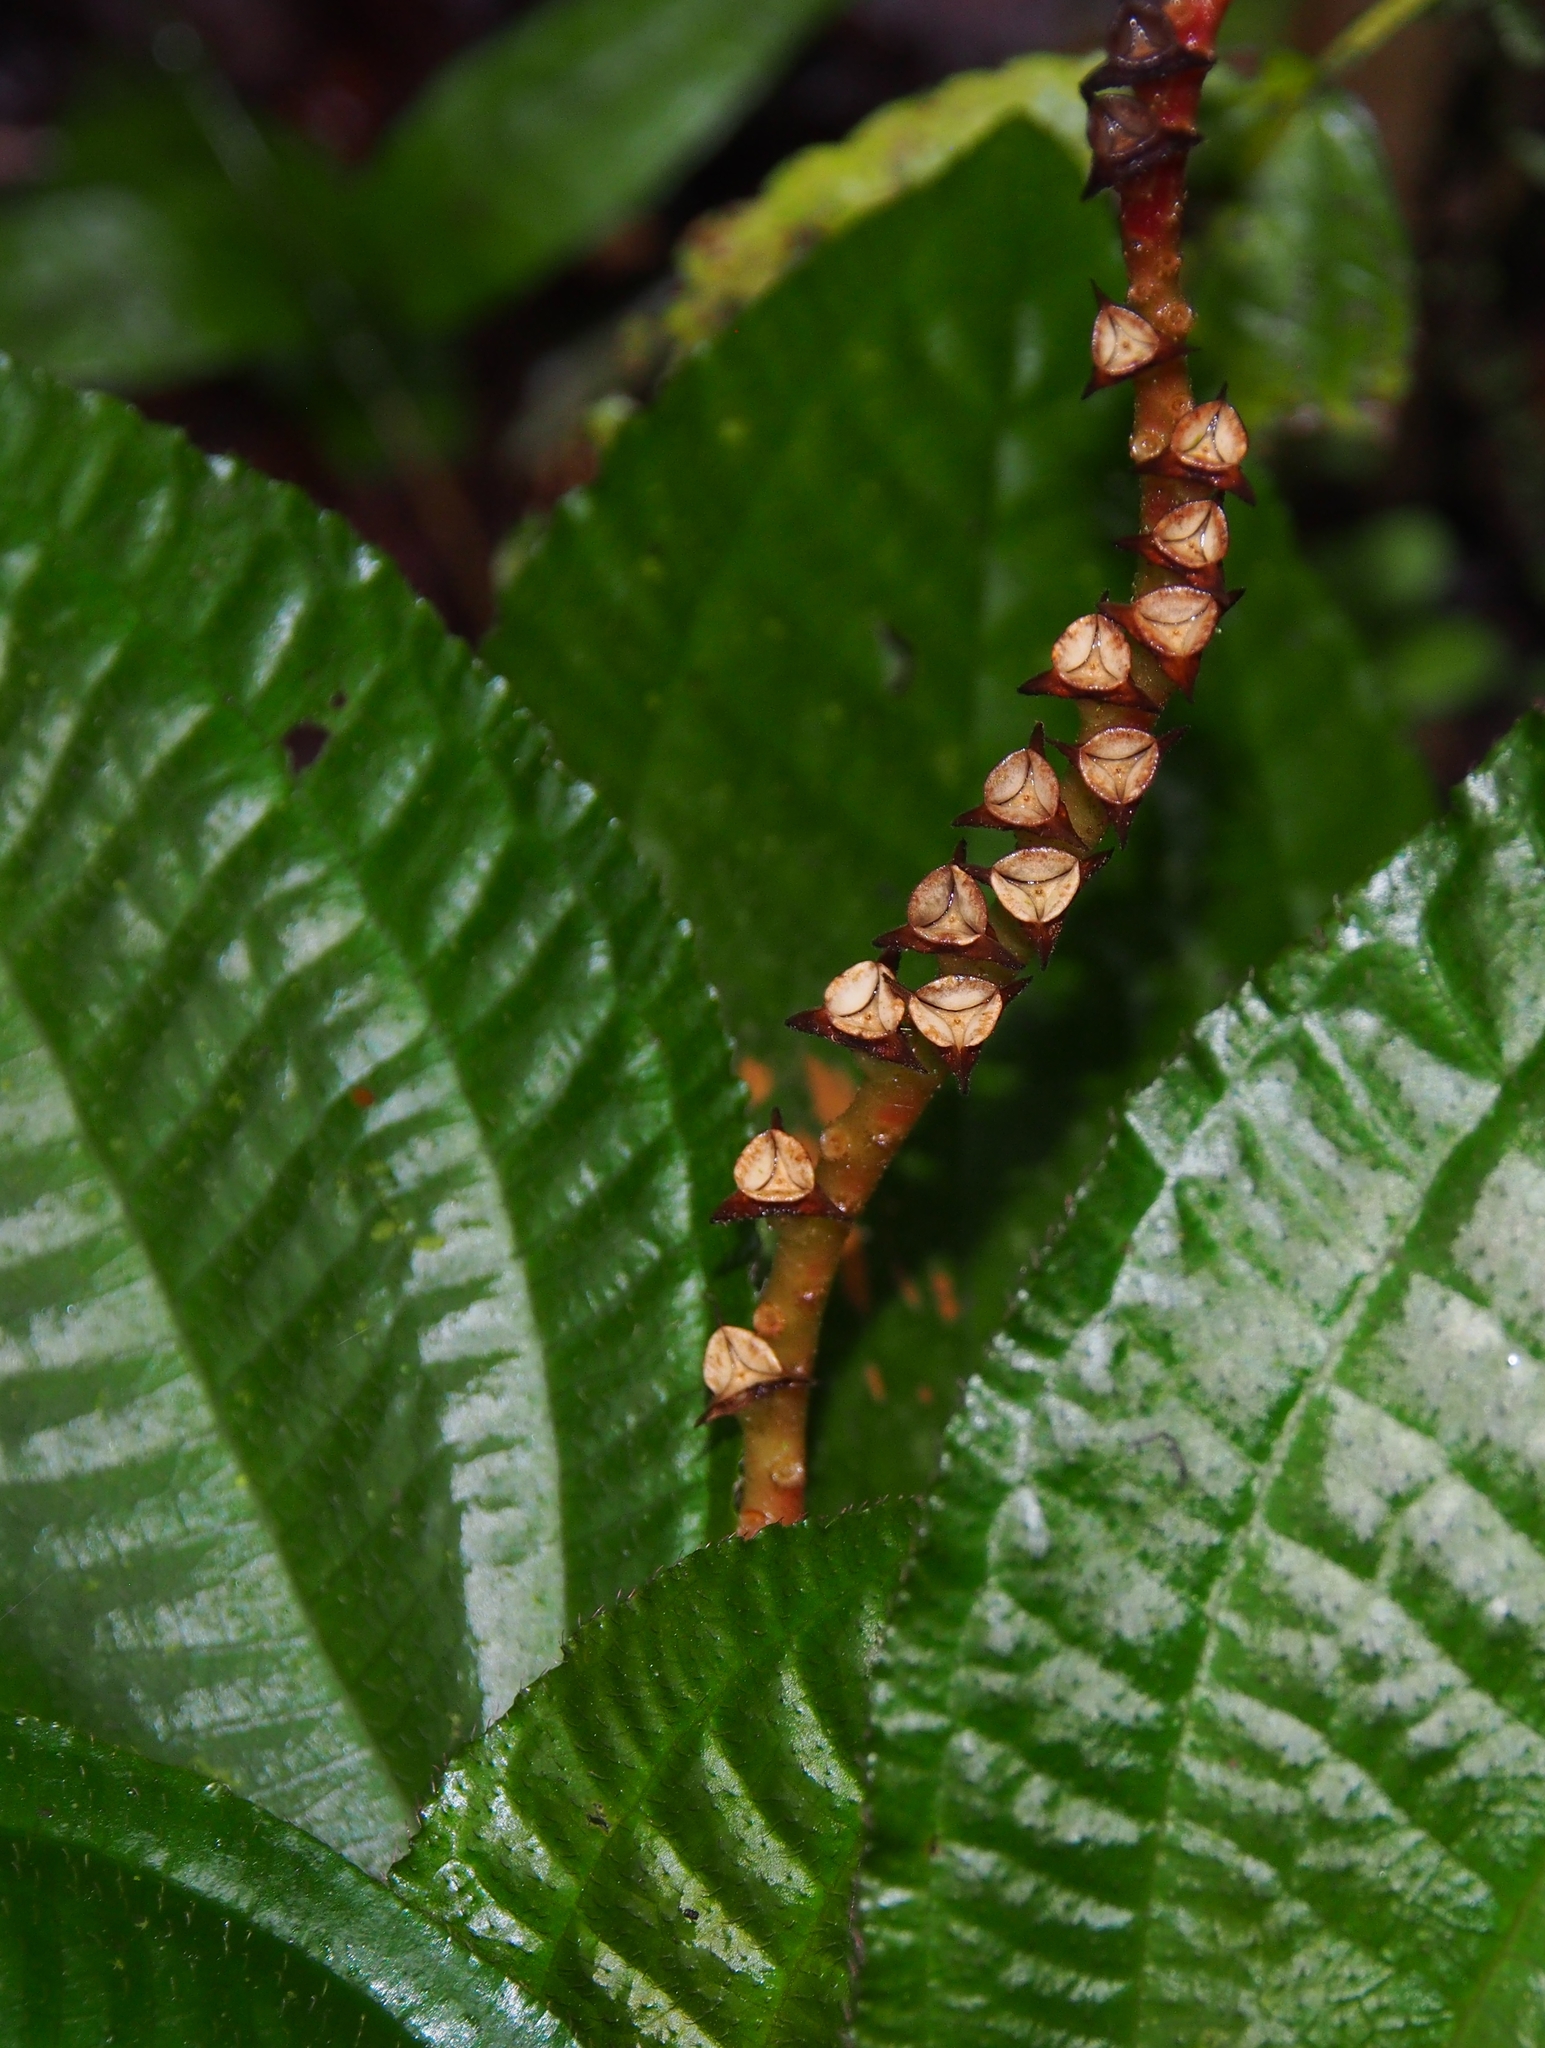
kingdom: Plantae
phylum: Tracheophyta
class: Magnoliopsida
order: Myrtales
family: Melastomataceae
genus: Triolena
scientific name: Triolena hirsuta
